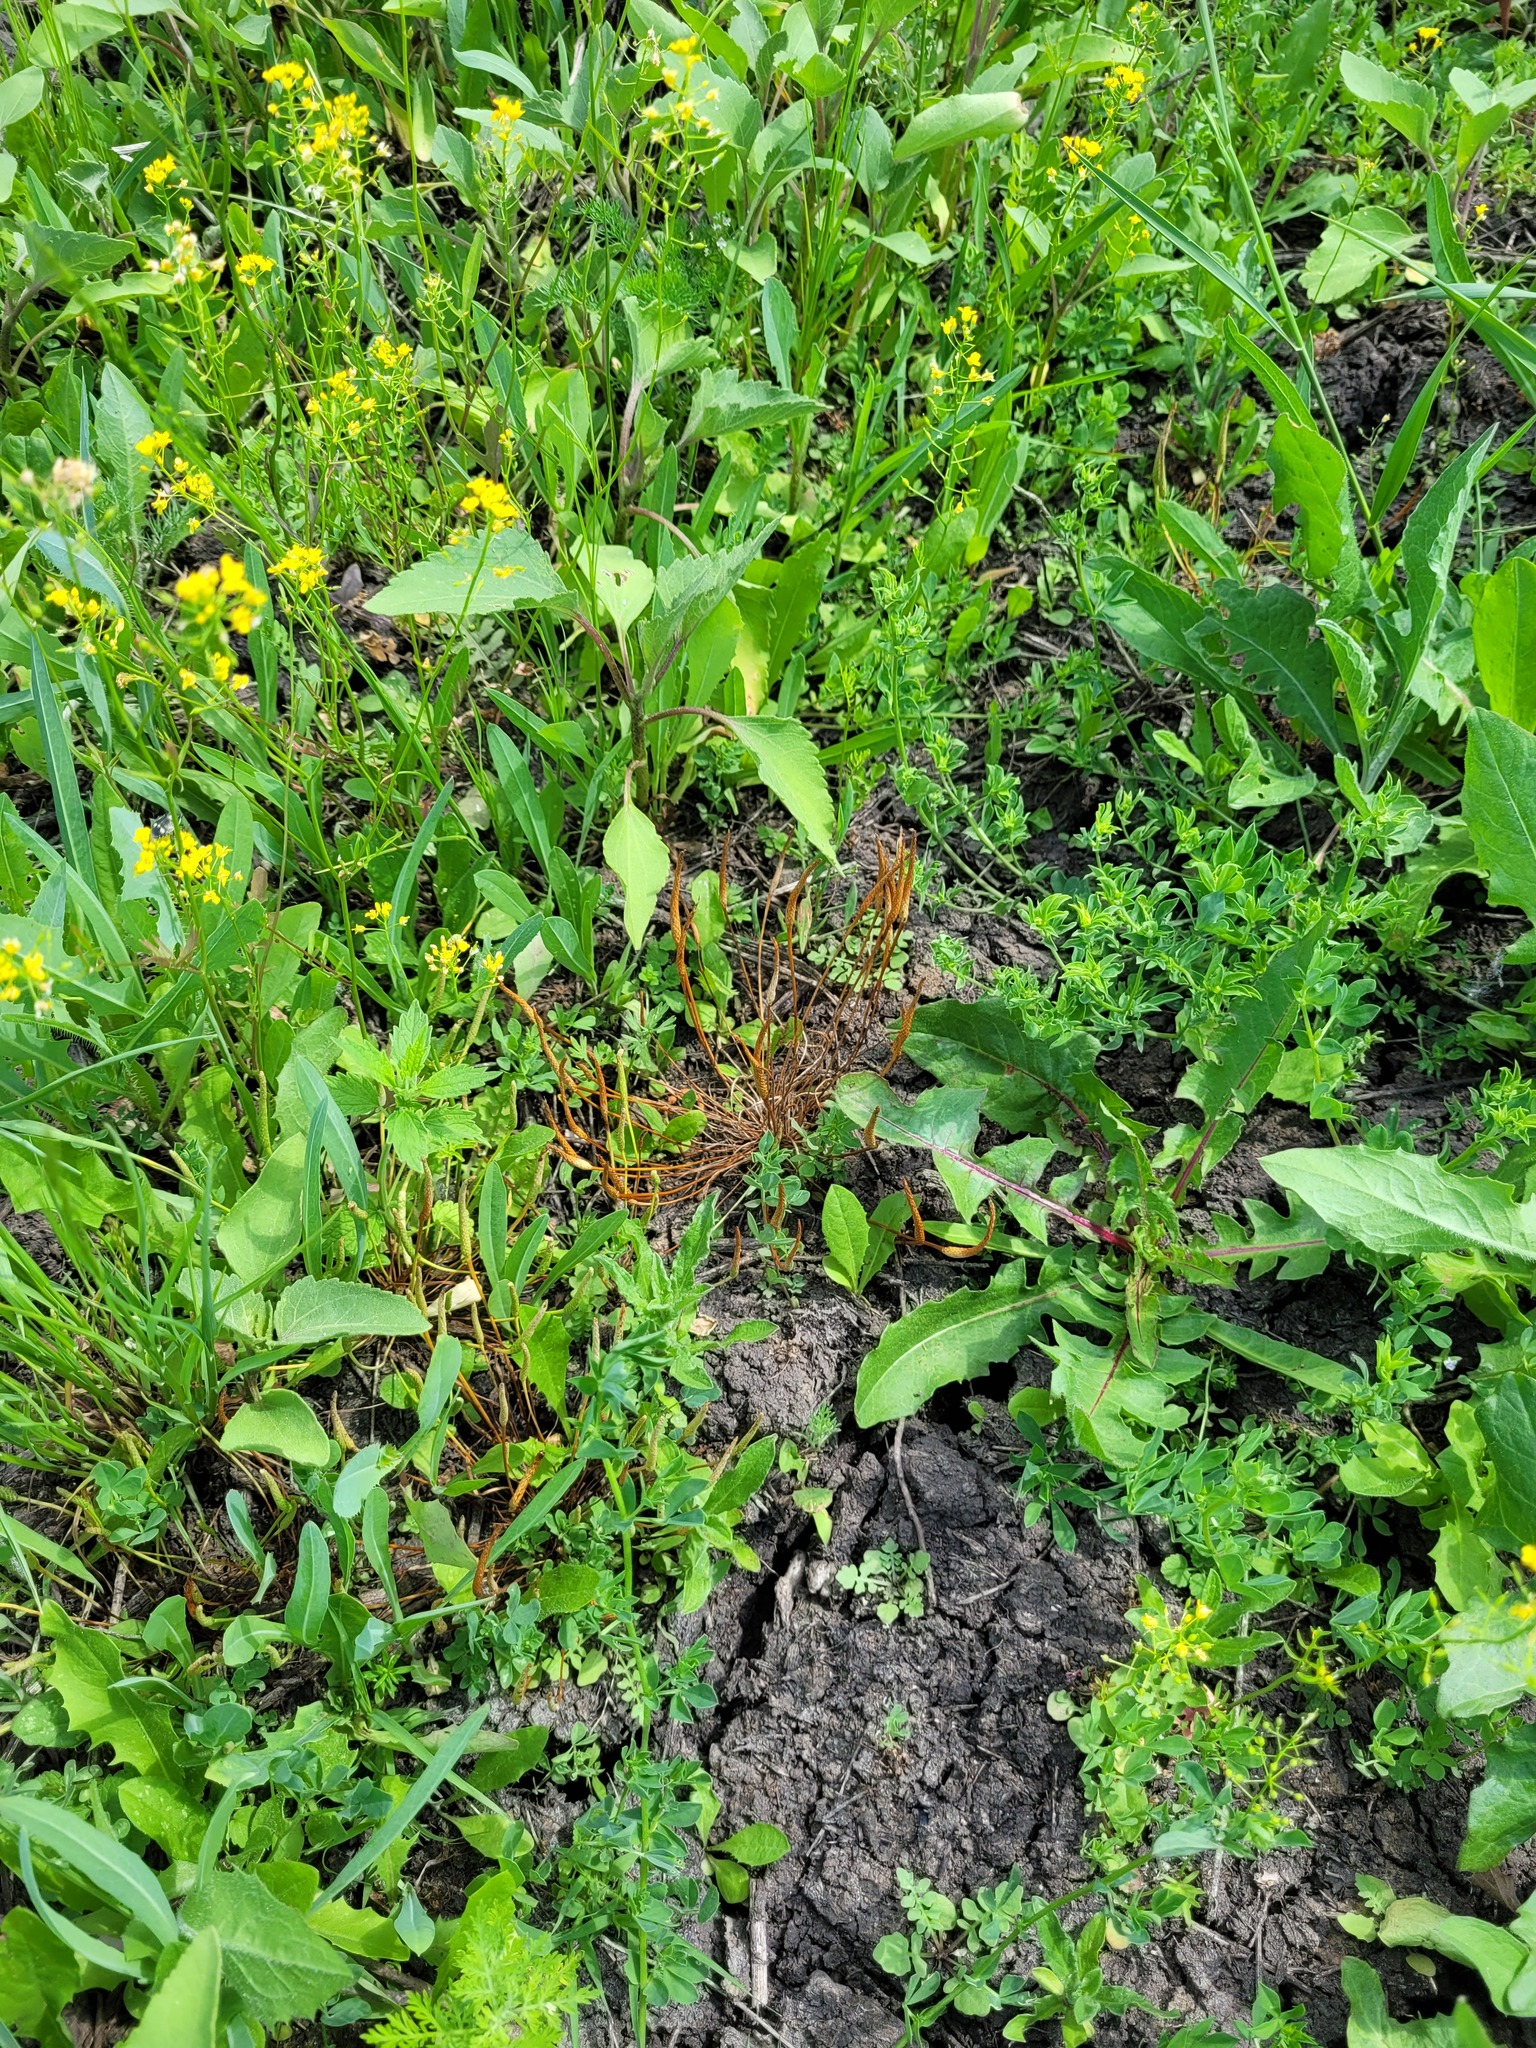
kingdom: Plantae
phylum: Tracheophyta
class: Magnoliopsida
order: Ranunculales
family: Ranunculaceae
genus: Myosurus
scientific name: Myosurus minimus
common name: Mousetail
